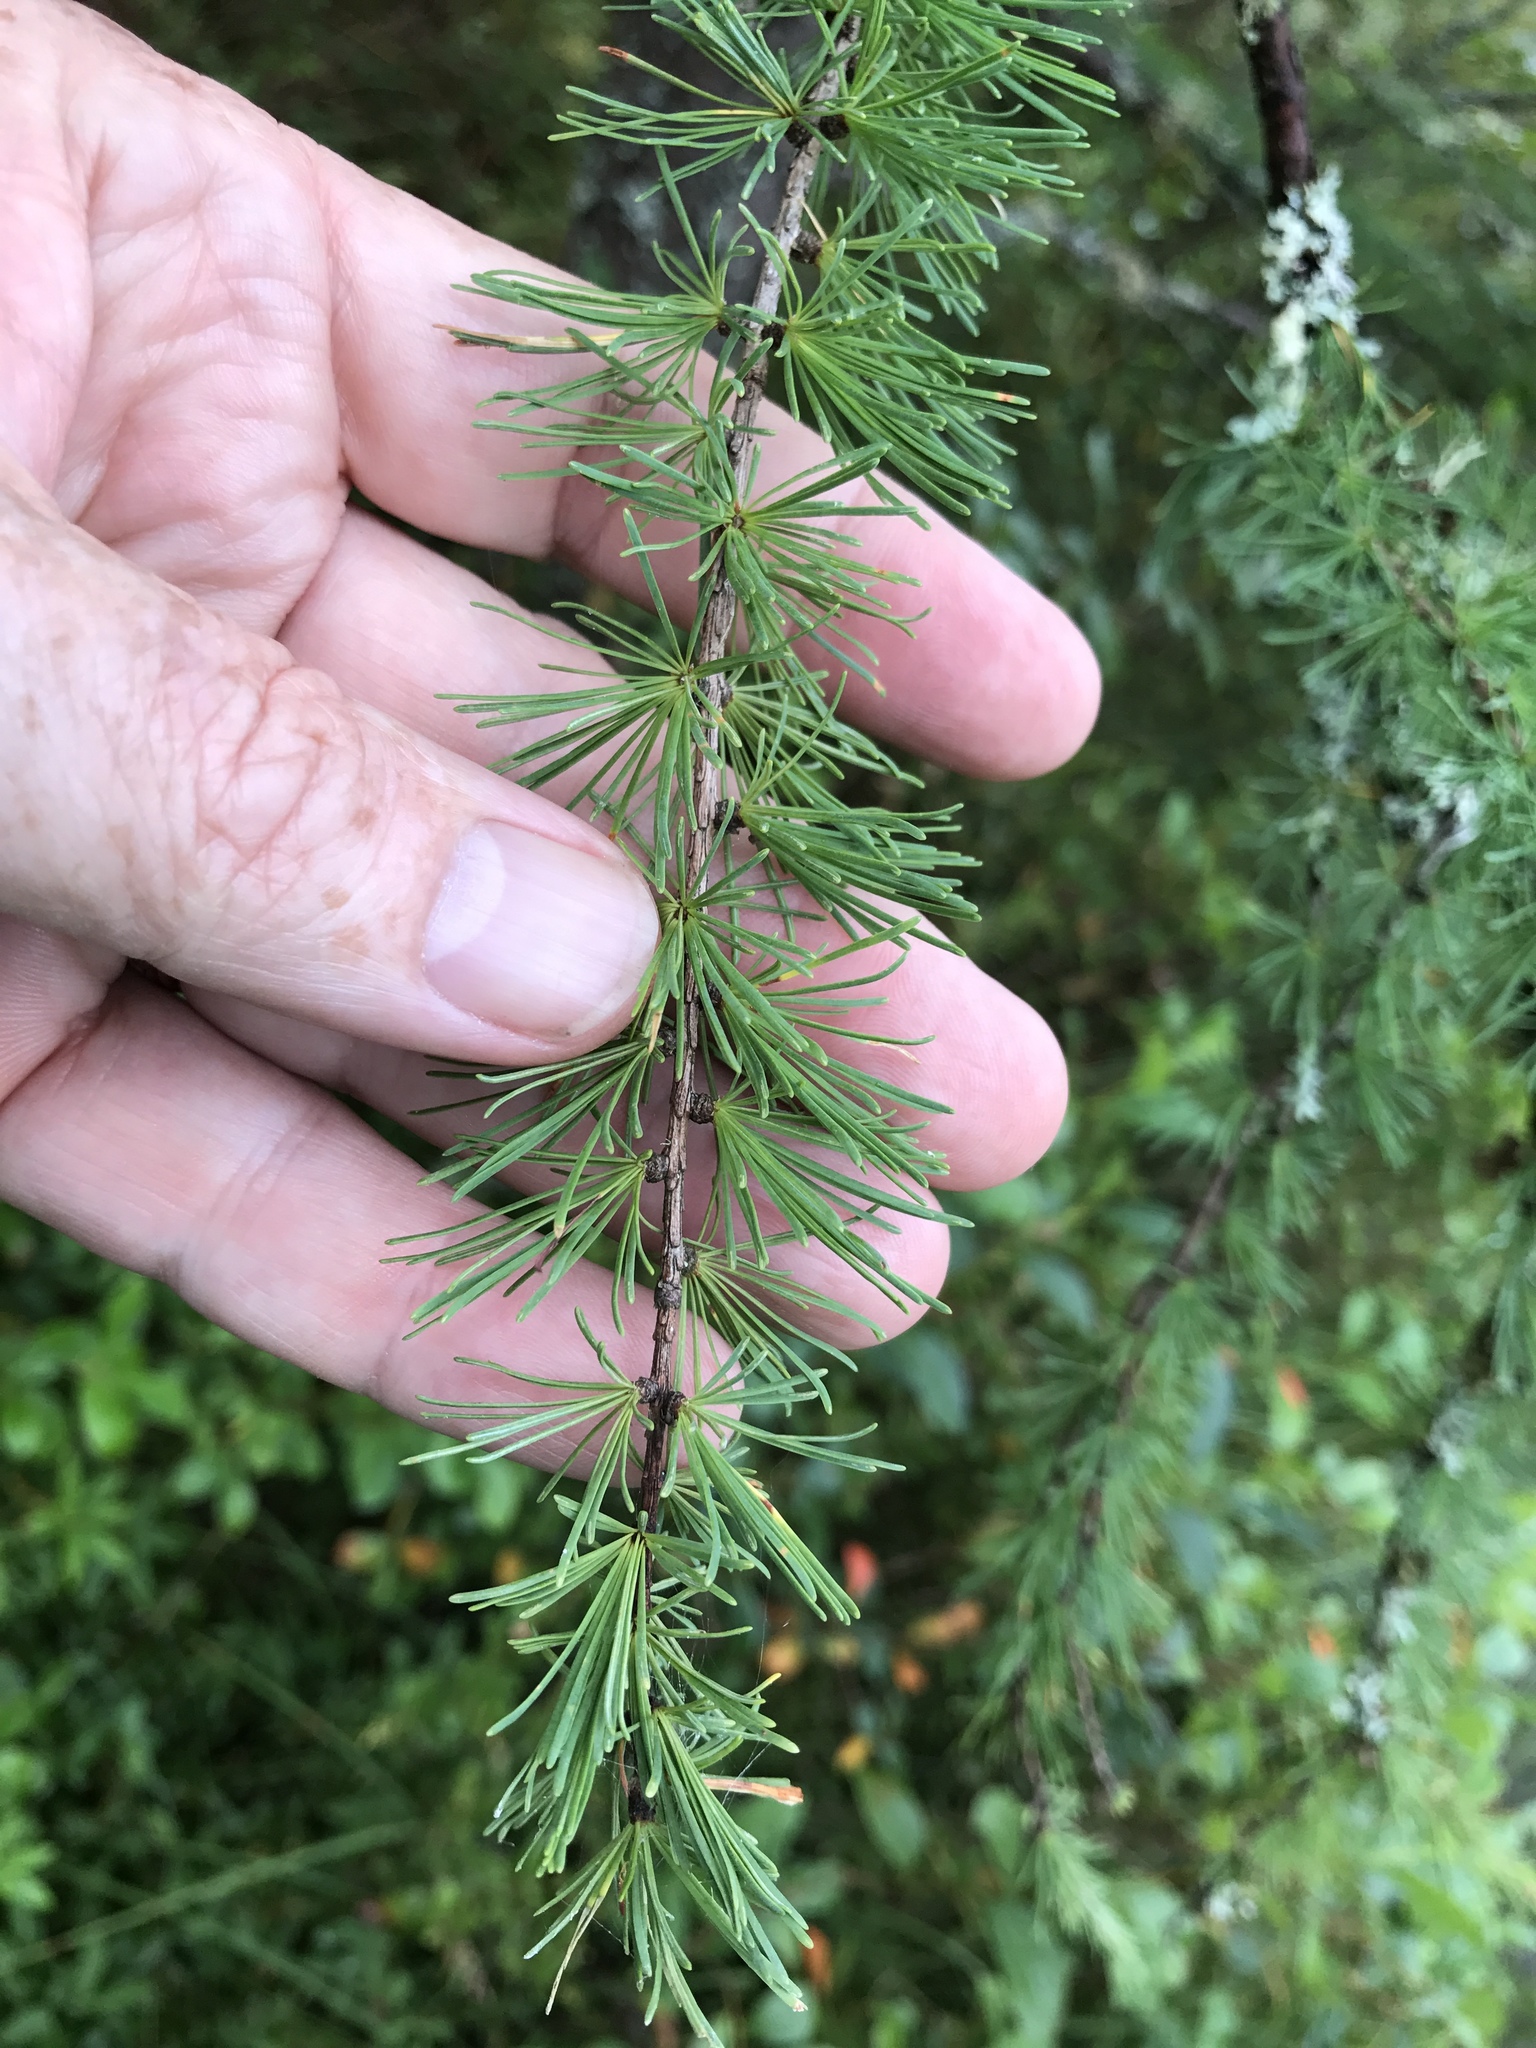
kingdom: Plantae
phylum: Tracheophyta
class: Pinopsida
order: Pinales
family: Pinaceae
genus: Larix
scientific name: Larix laricina
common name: American larch
